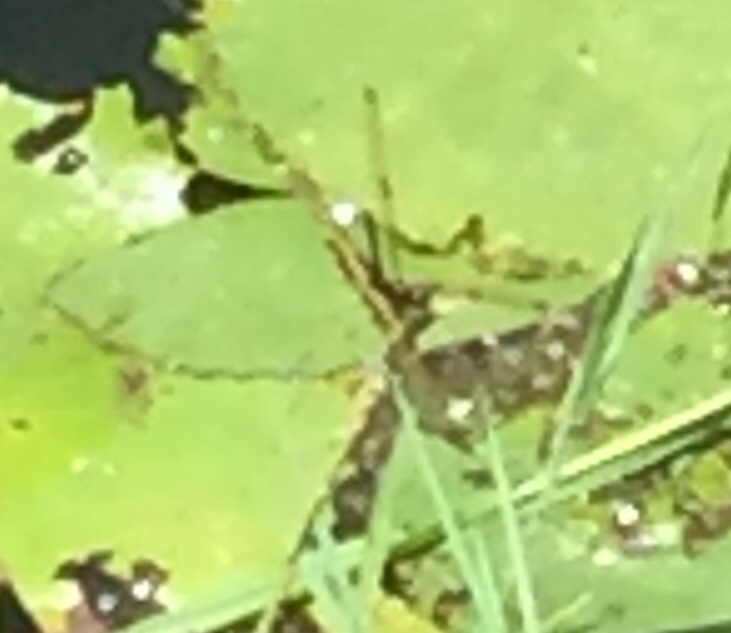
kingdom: Animalia
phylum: Arthropoda
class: Insecta
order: Odonata
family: Libellulidae
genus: Rhyothemis
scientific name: Rhyothemis variegata
